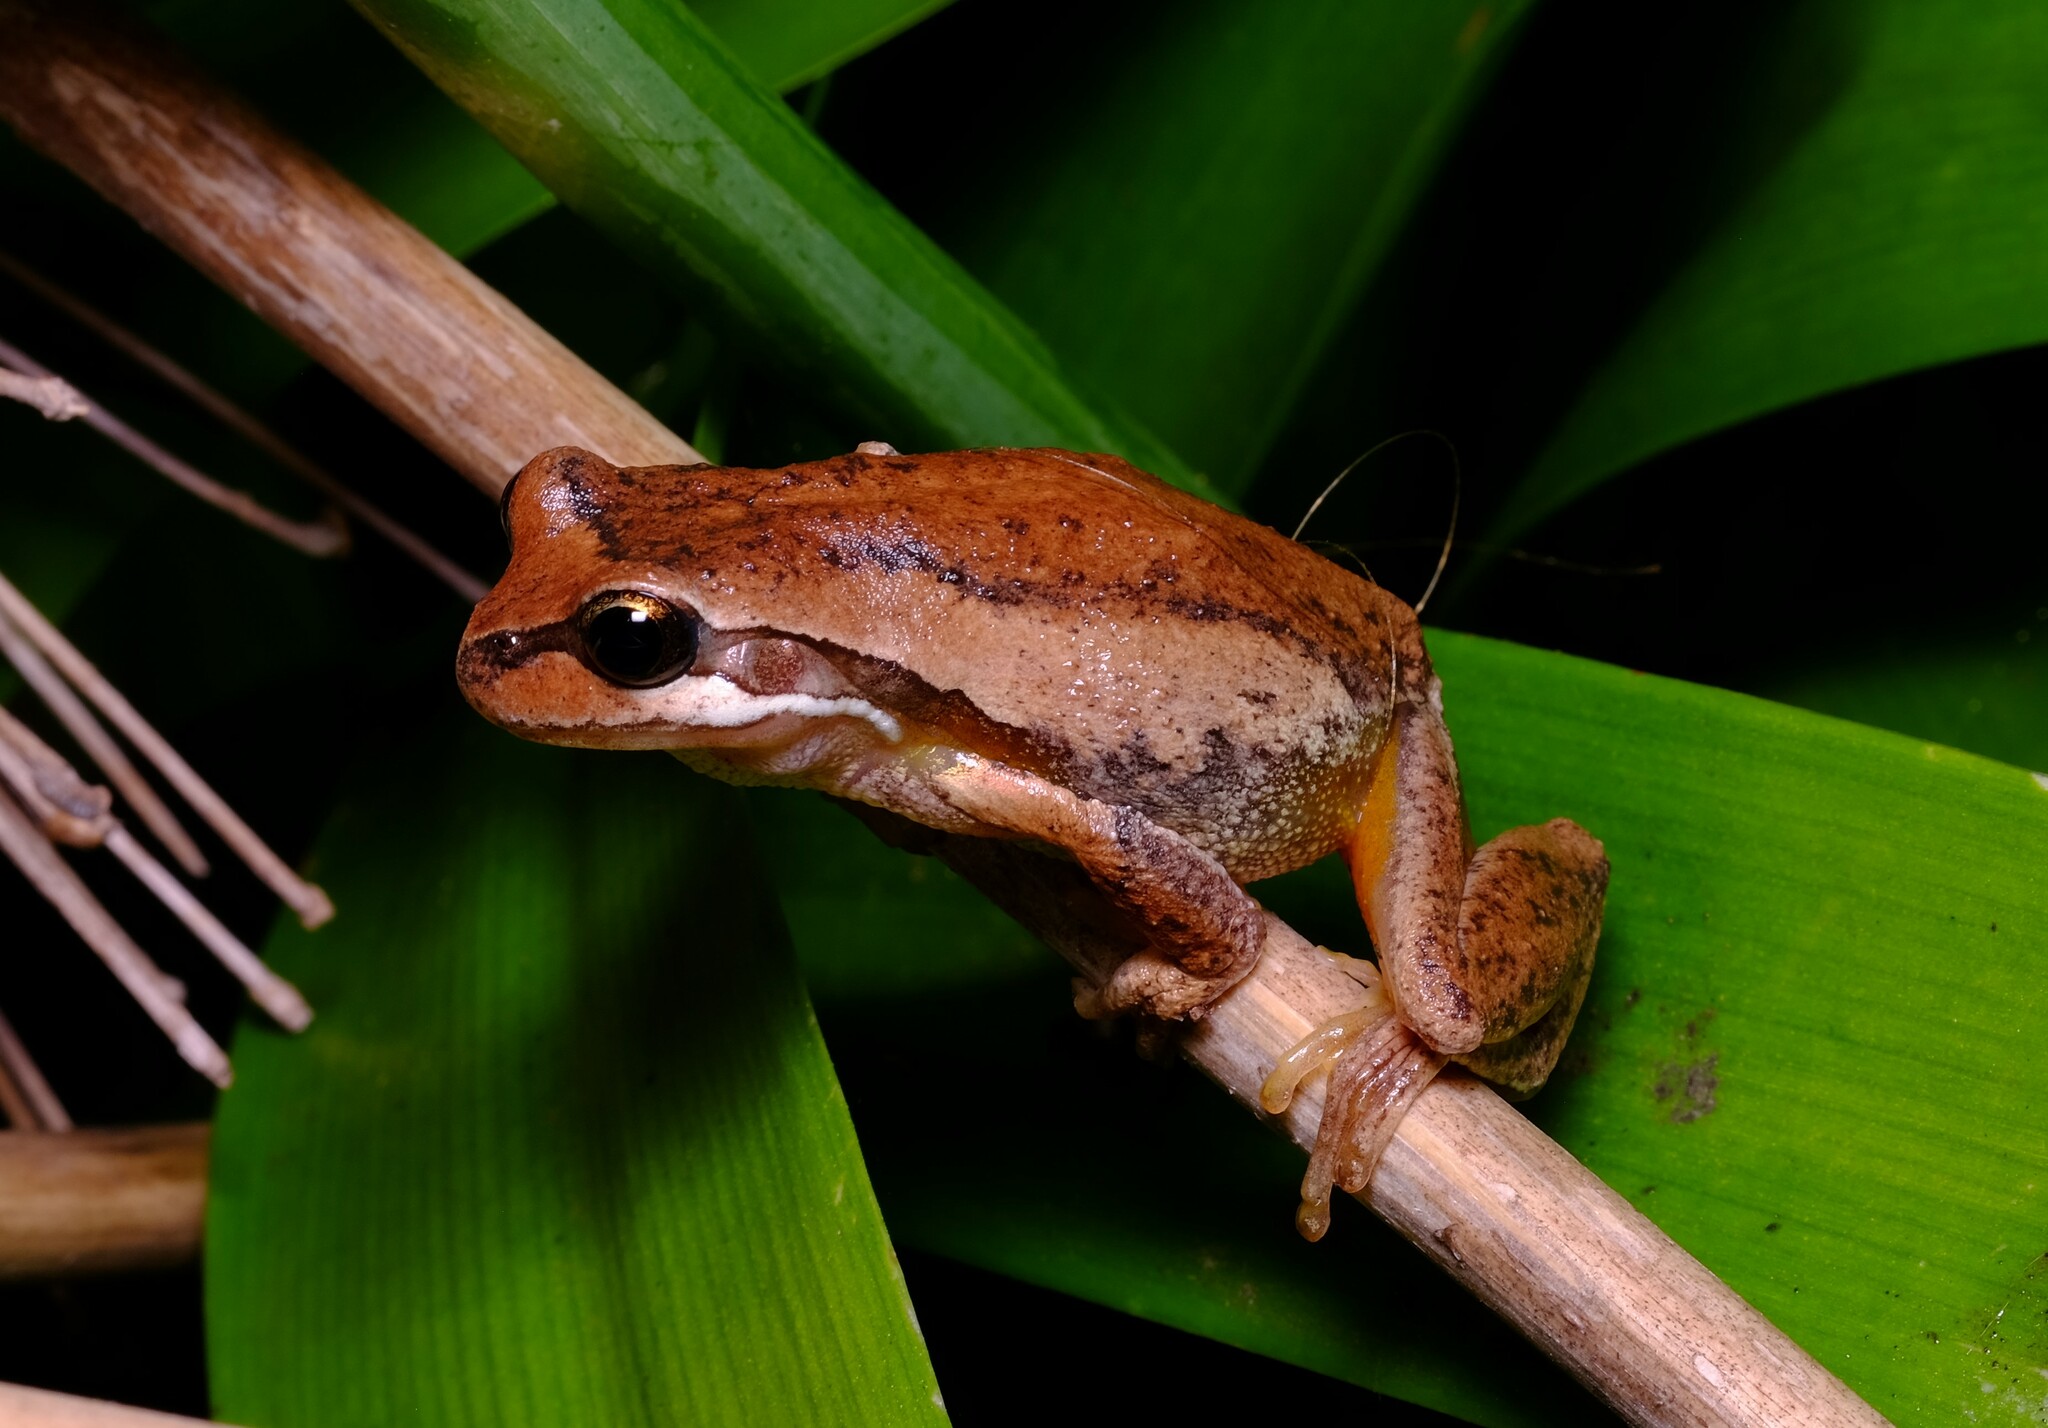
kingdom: Animalia
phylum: Chordata
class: Amphibia
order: Anura
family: Pelodryadidae
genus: Litoria
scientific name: Litoria ewingii
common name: Southern brown tree frog
